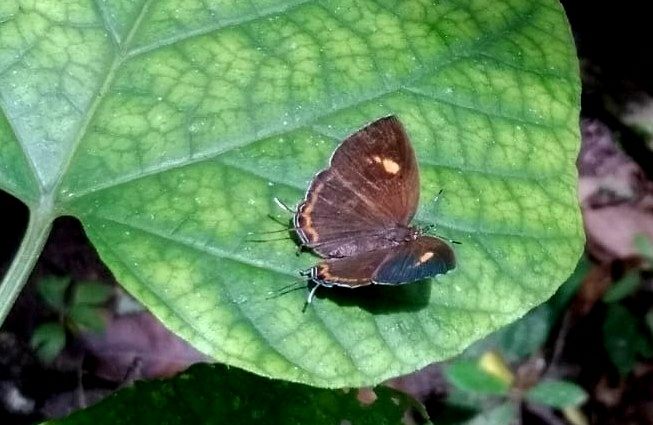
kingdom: Animalia
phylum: Arthropoda
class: Insecta
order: Lepidoptera
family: Lycaenidae
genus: Rathinda
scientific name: Rathinda amor
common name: Monkey puzzle
